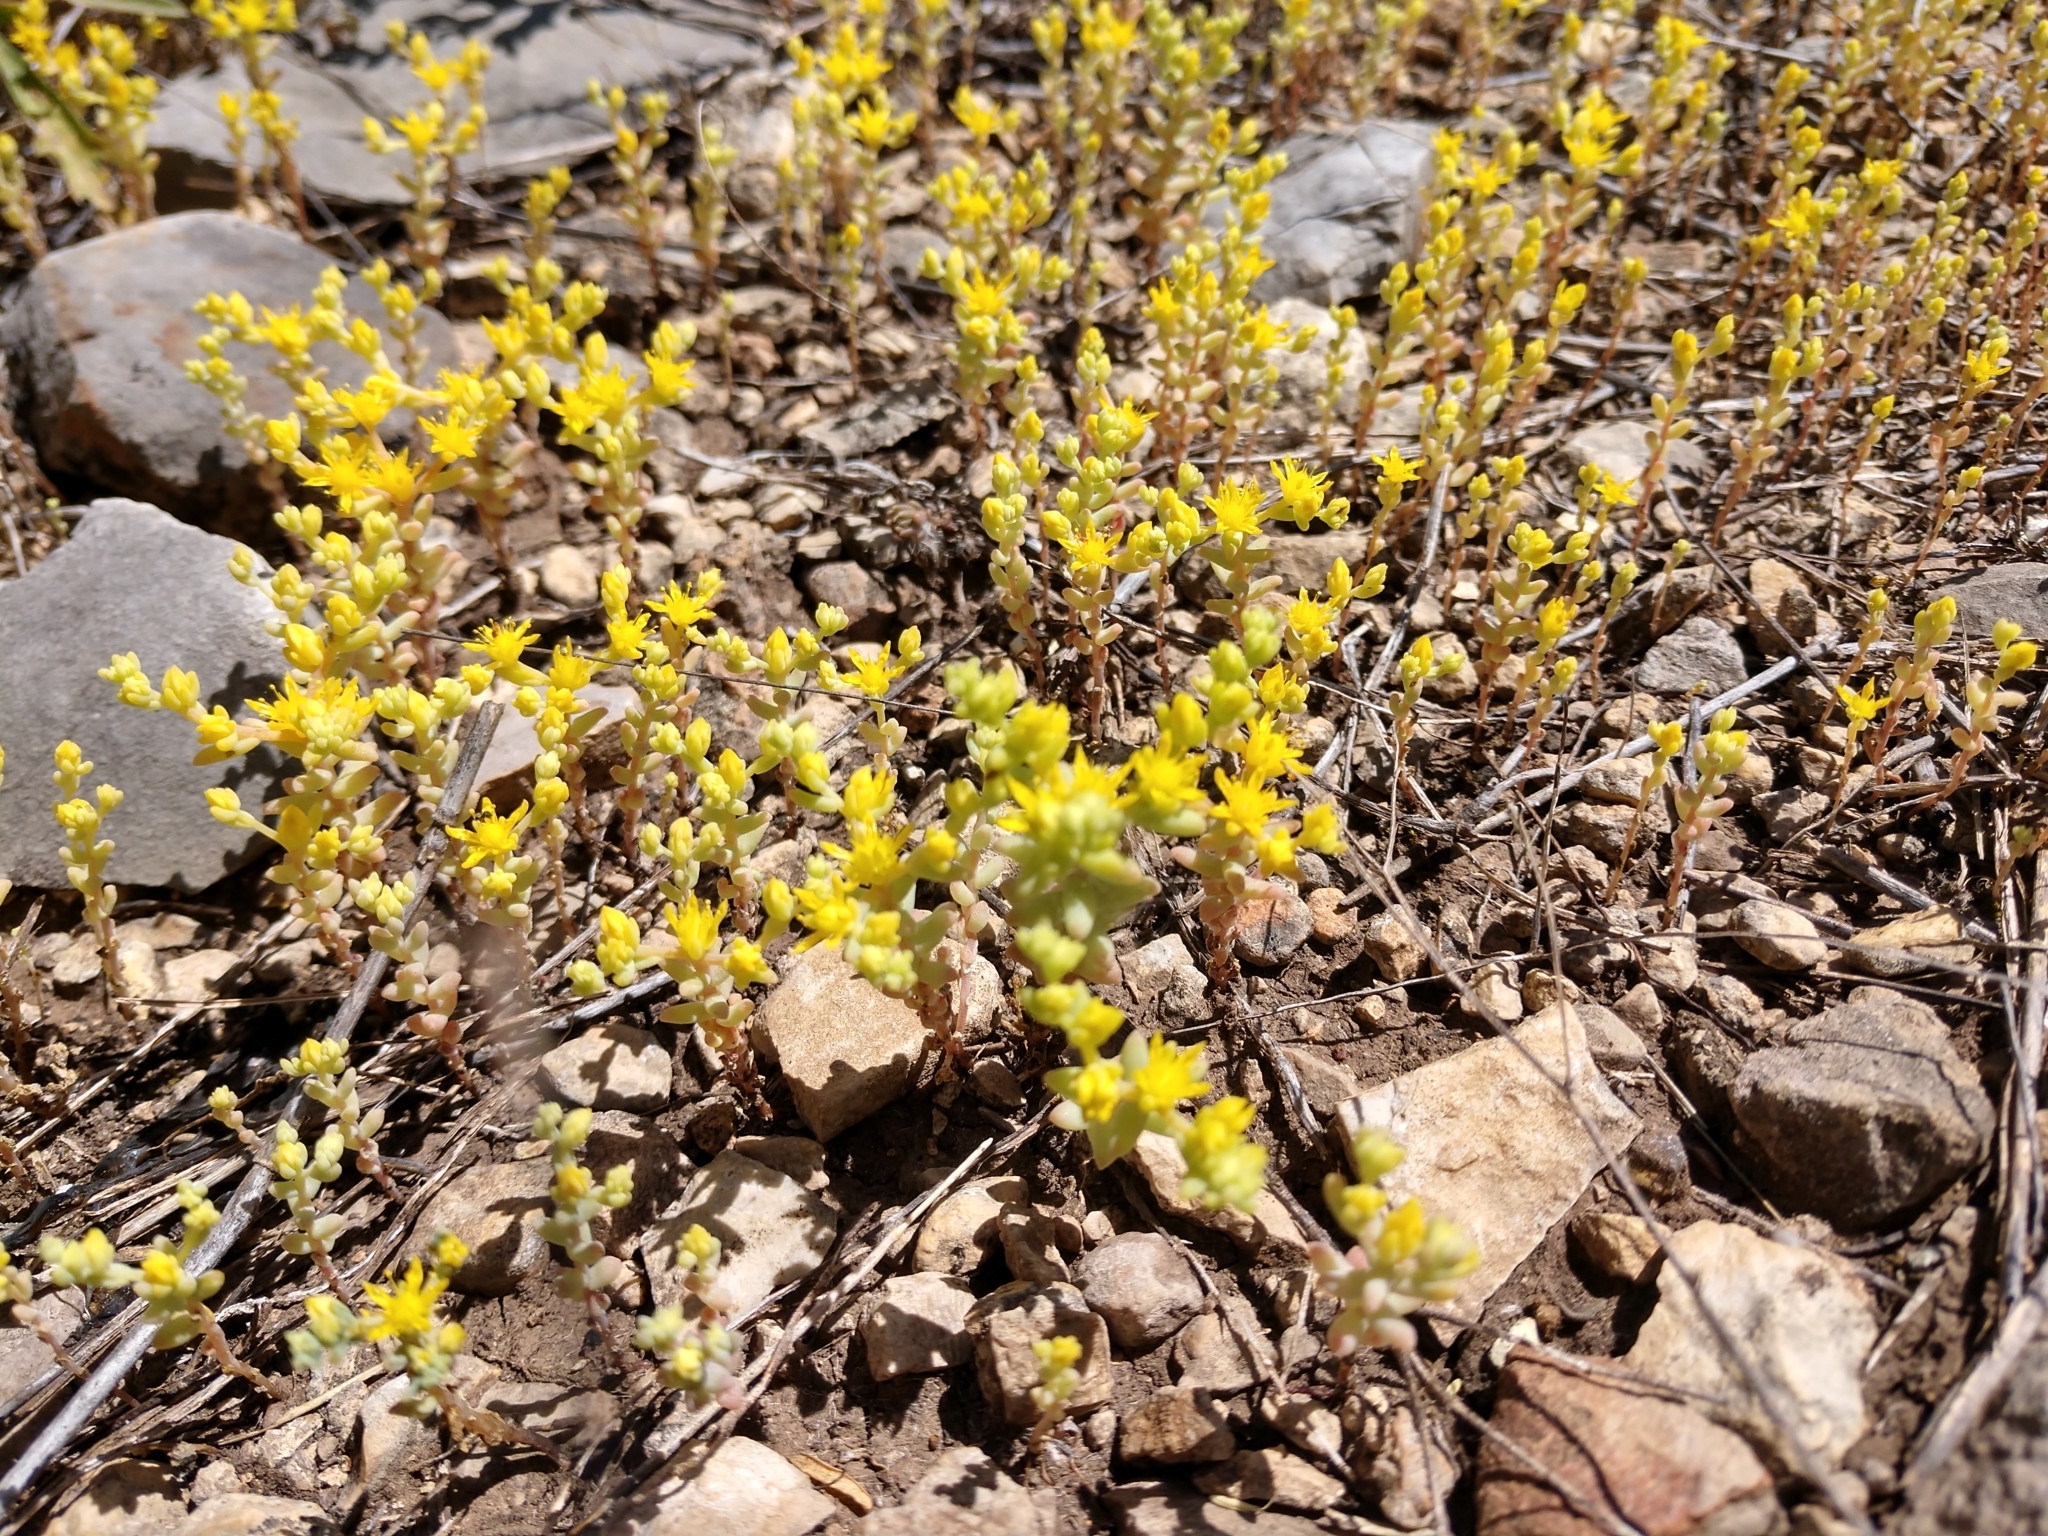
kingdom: Plantae
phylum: Tracheophyta
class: Magnoliopsida
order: Saxifragales
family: Crassulaceae
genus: Sedum
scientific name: Sedum nuttallii
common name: Yellow stonecrop
